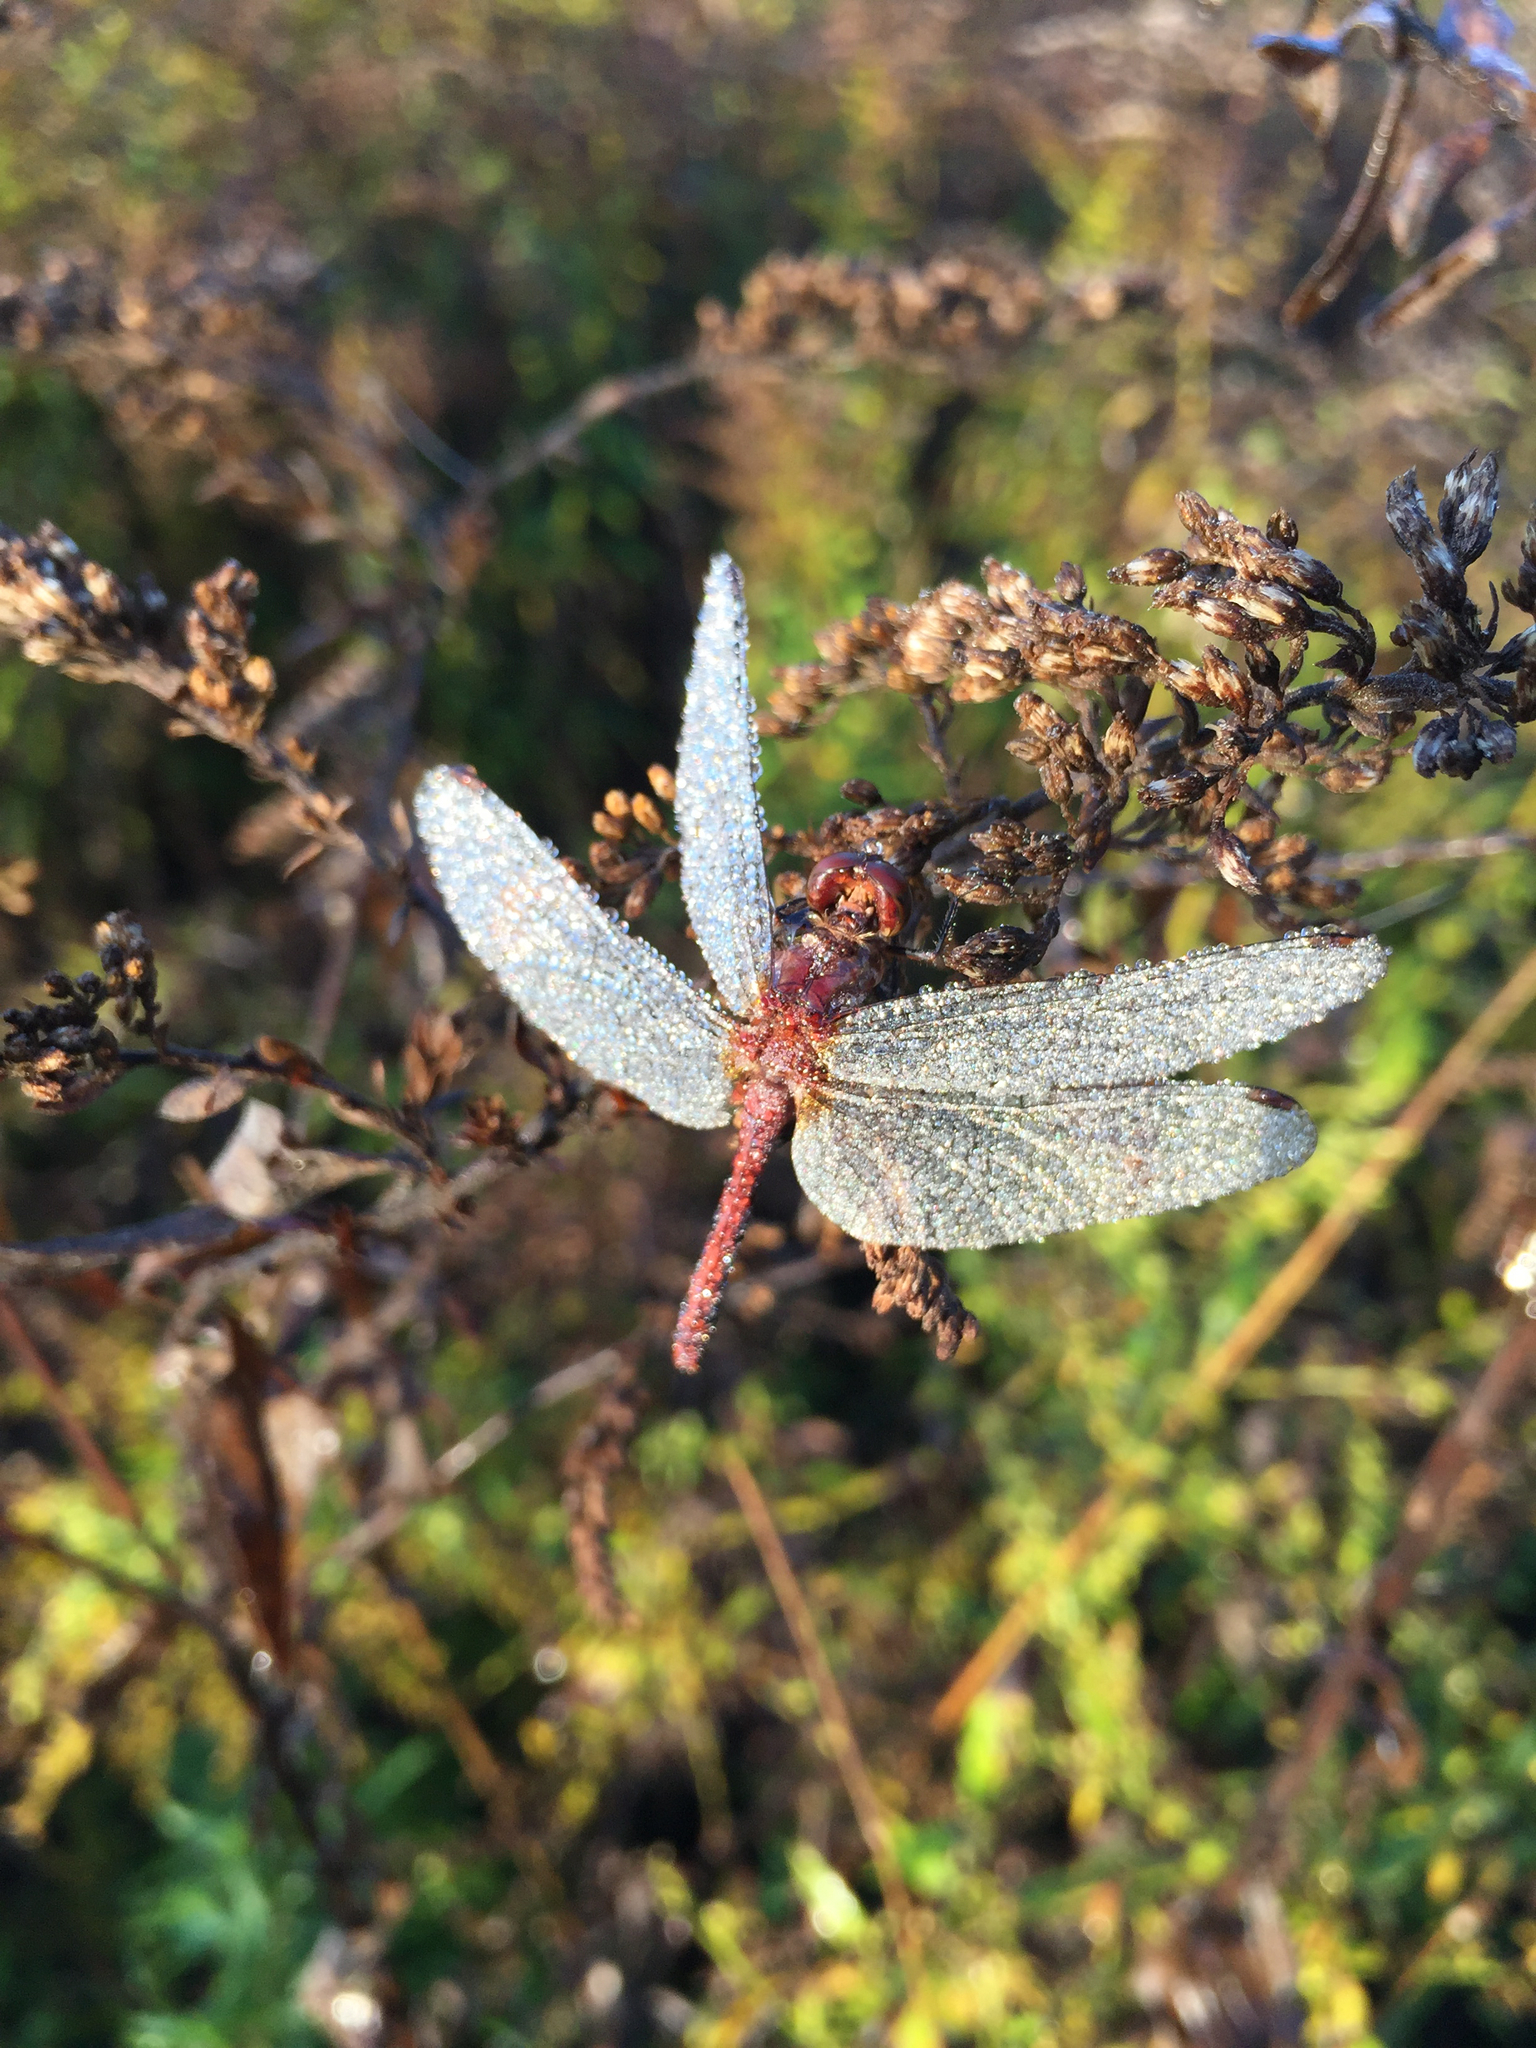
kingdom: Animalia
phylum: Arthropoda
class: Insecta
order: Odonata
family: Libellulidae
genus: Sympetrum
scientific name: Sympetrum vicinum
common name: Autumn meadowhawk
